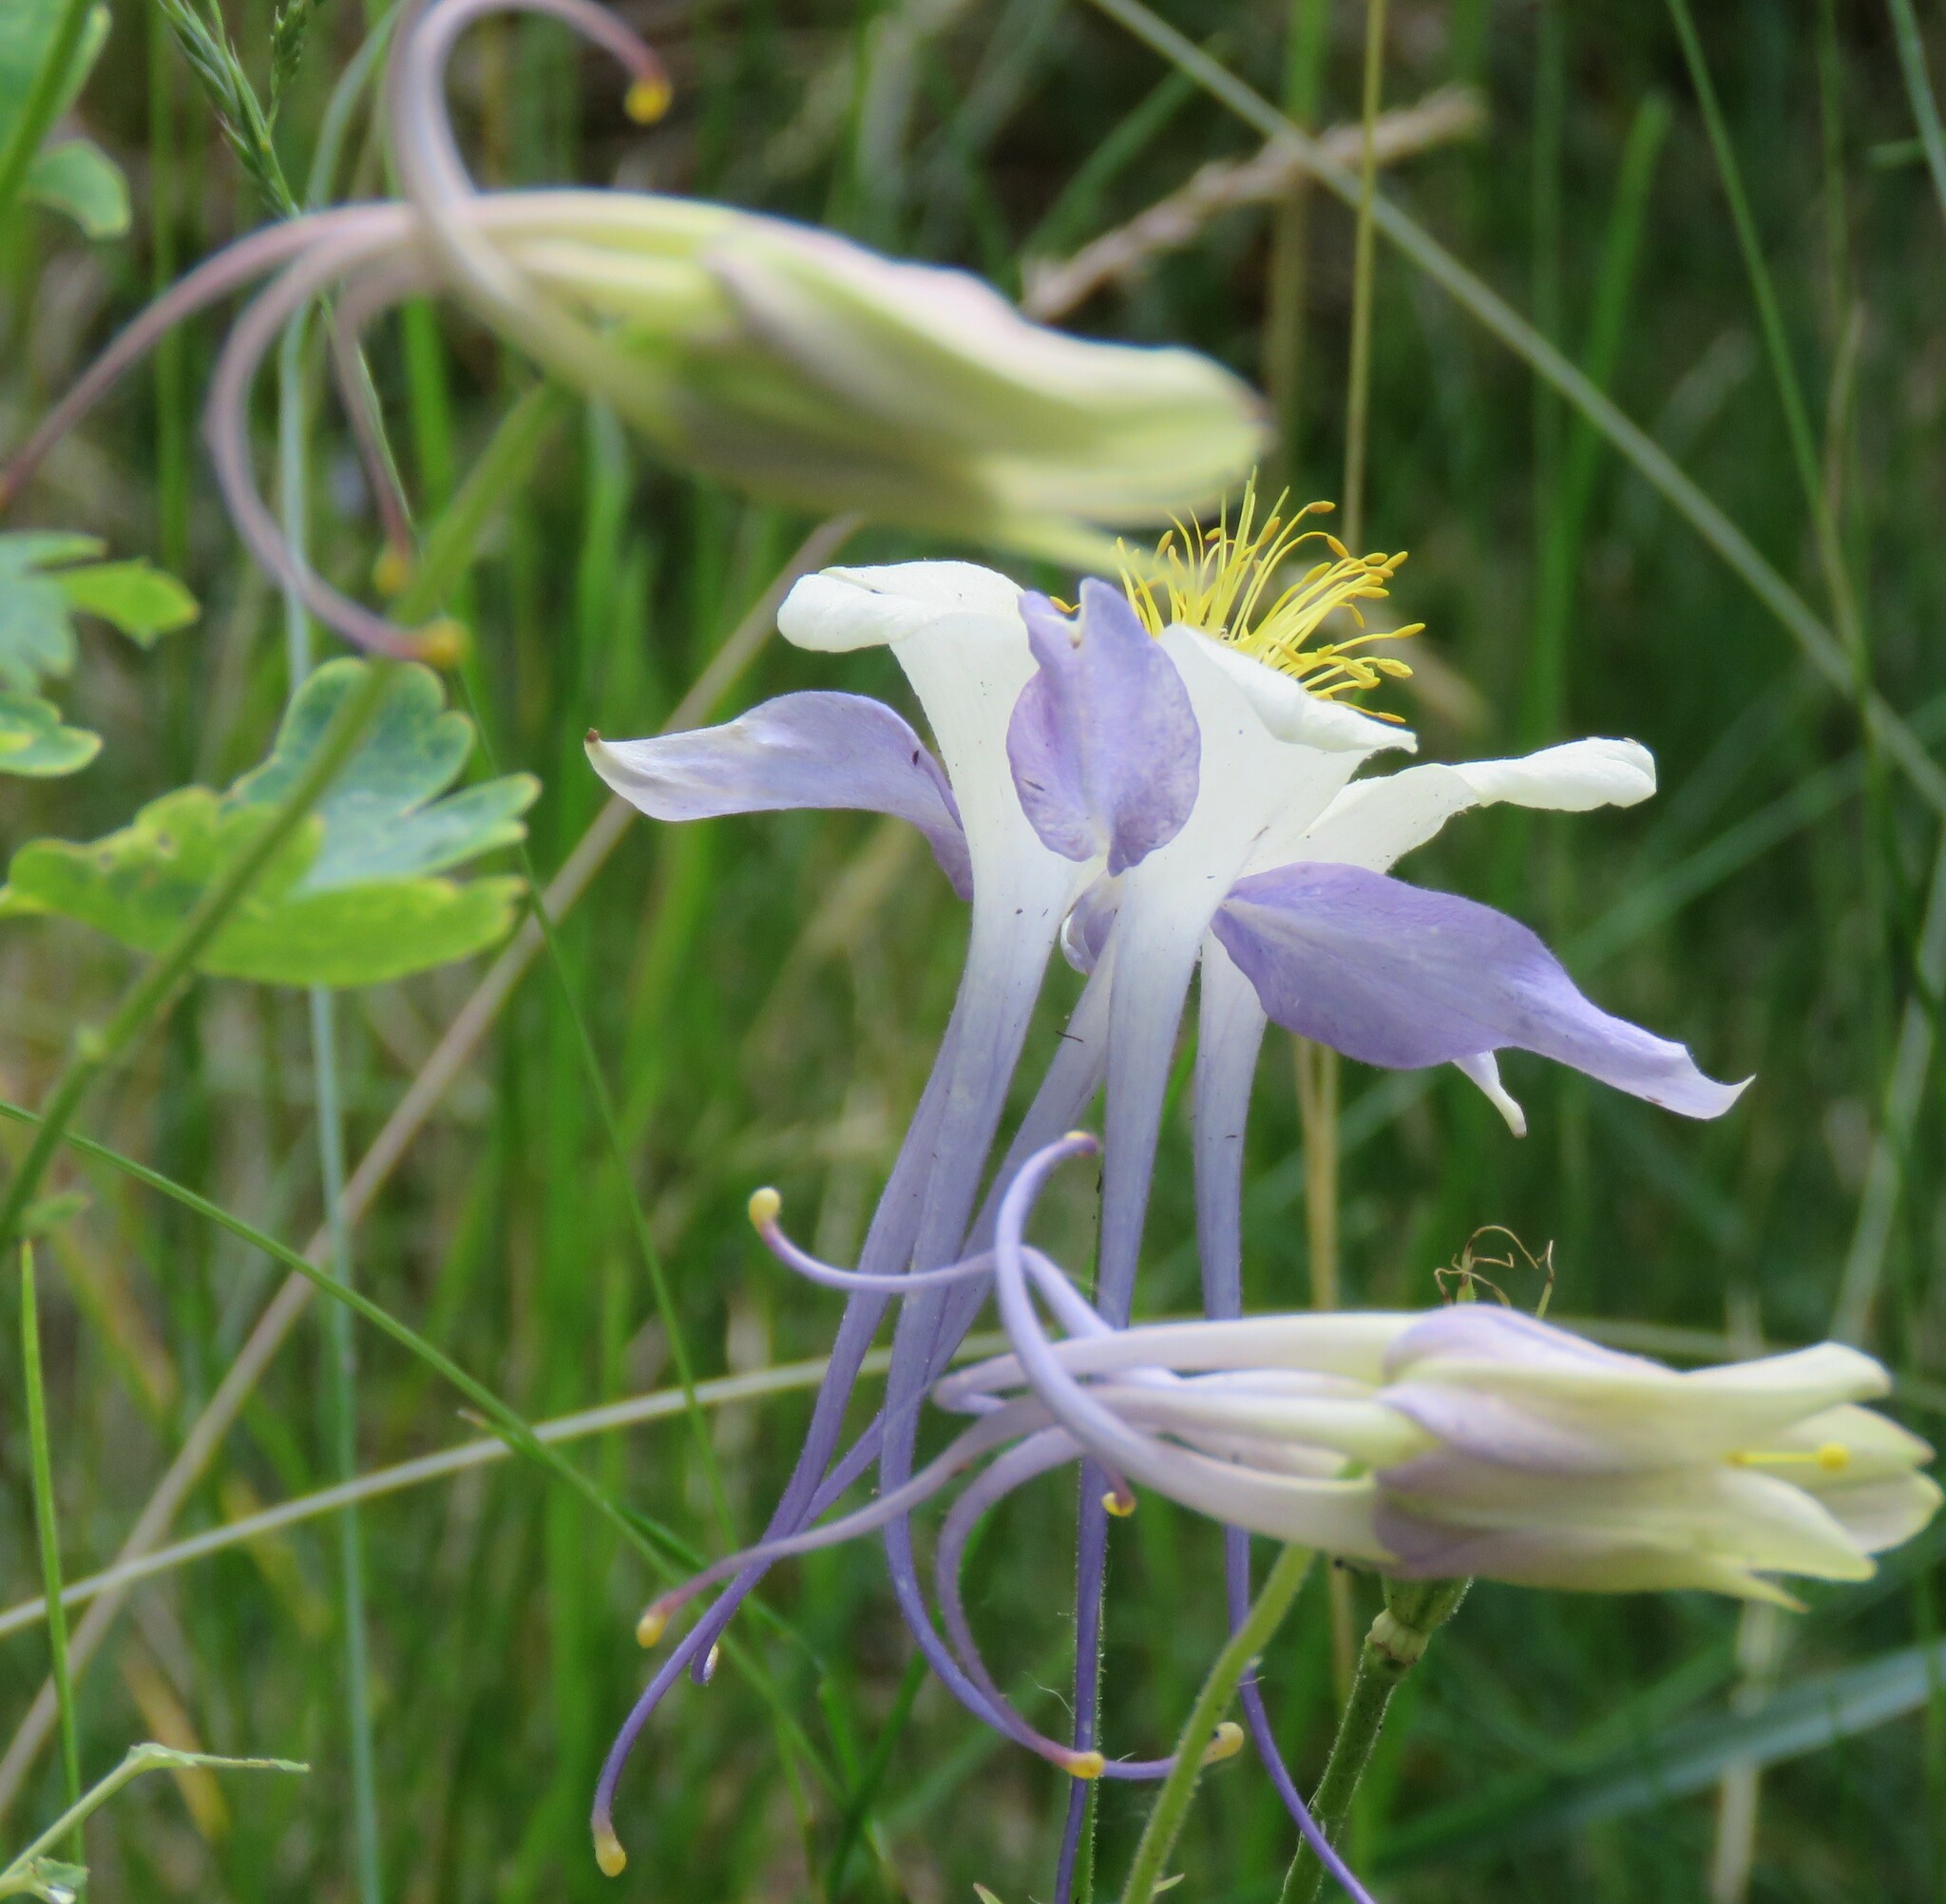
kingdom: Plantae
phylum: Tracheophyta
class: Magnoliopsida
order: Ranunculales
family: Ranunculaceae
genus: Aquilegia
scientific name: Aquilegia coerulea
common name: Rocky mountain columbine
